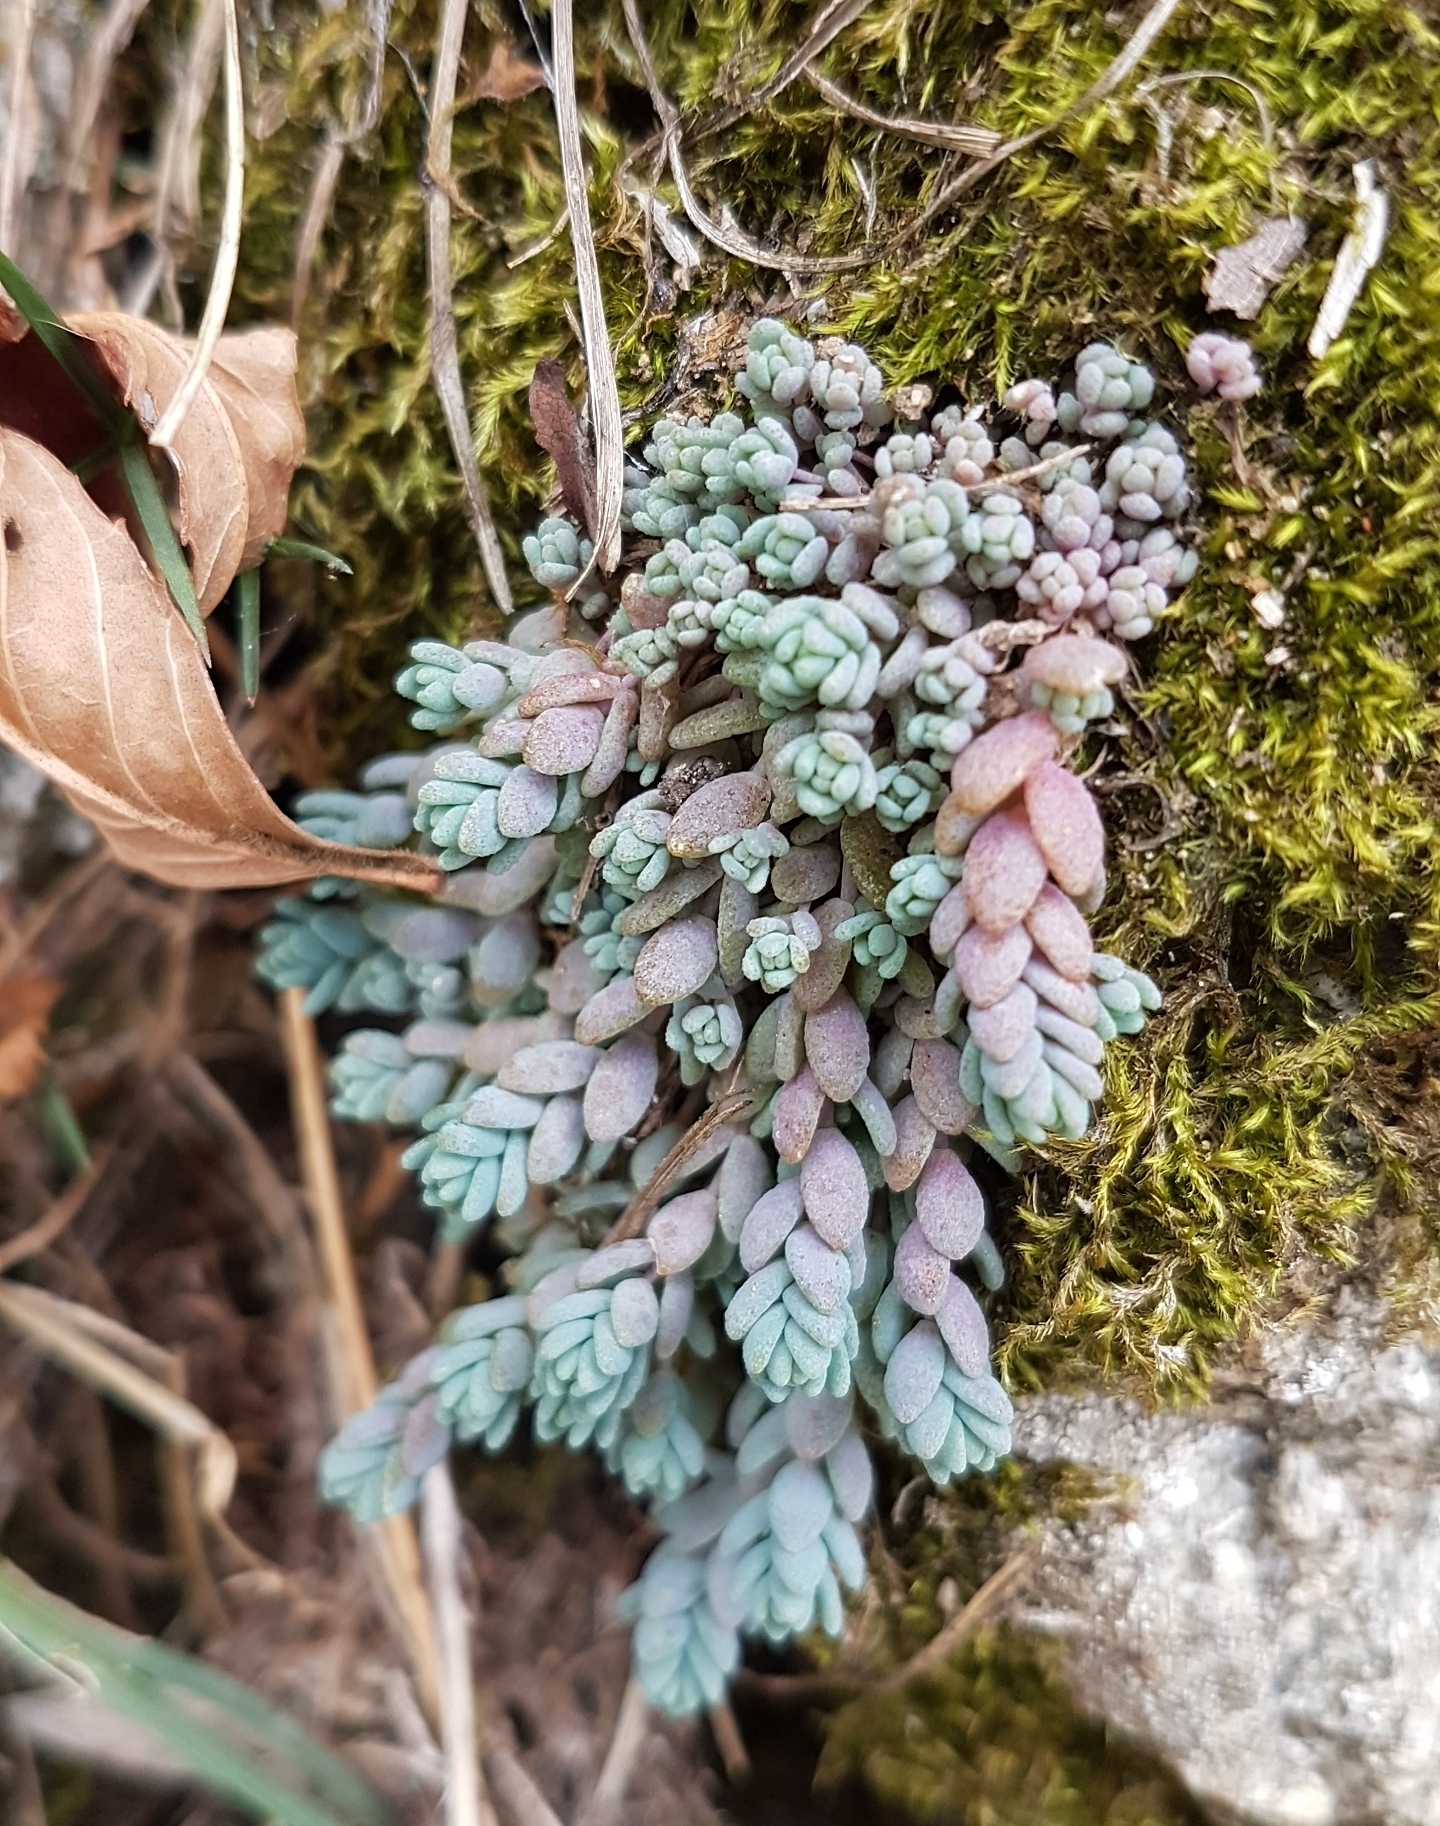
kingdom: Plantae
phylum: Tracheophyta
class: Magnoliopsida
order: Saxifragales
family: Crassulaceae
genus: Sedum
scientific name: Sedum dasyphyllum
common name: Thick-leaf stonecrop
